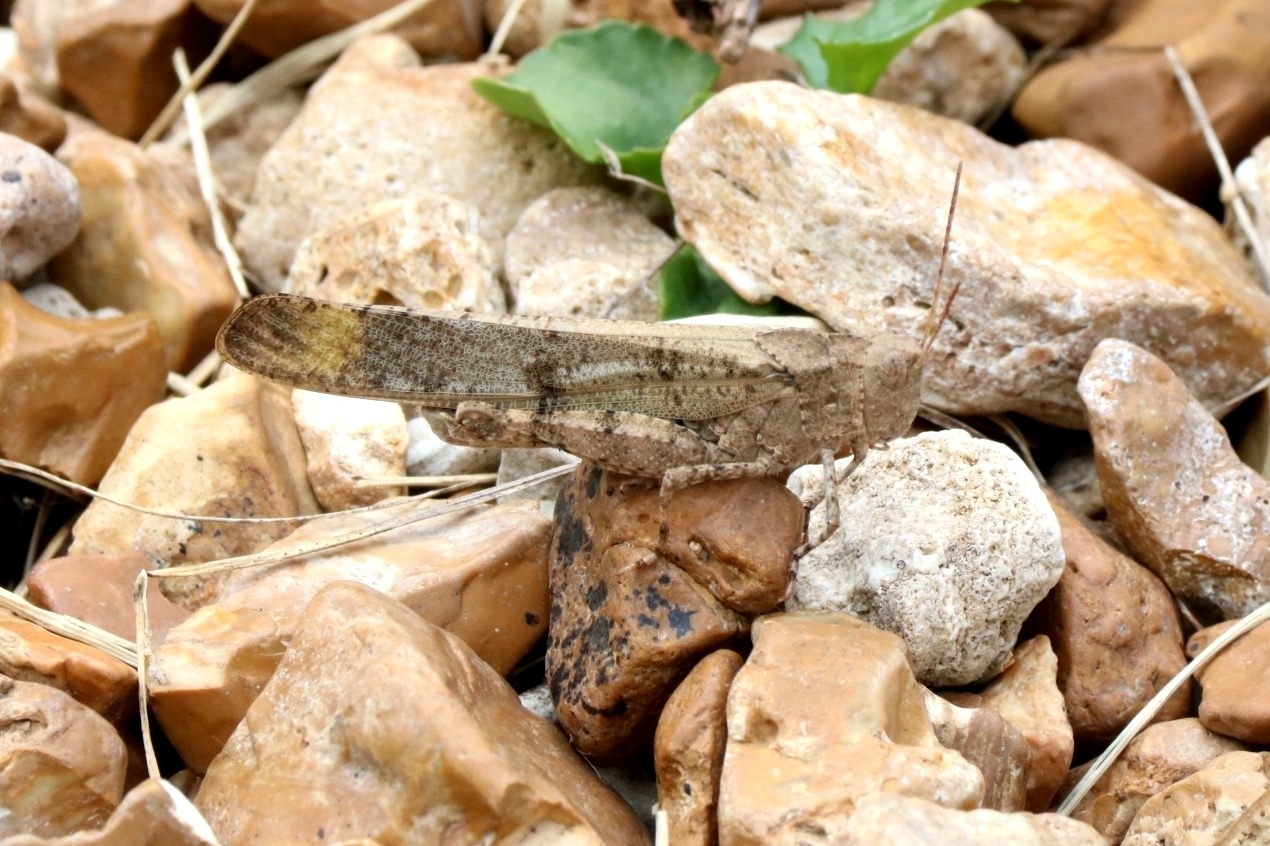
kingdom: Animalia
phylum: Arthropoda
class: Insecta
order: Orthoptera
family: Acrididae
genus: Dissosteira
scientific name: Dissosteira carolina
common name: Carolina grasshopper
